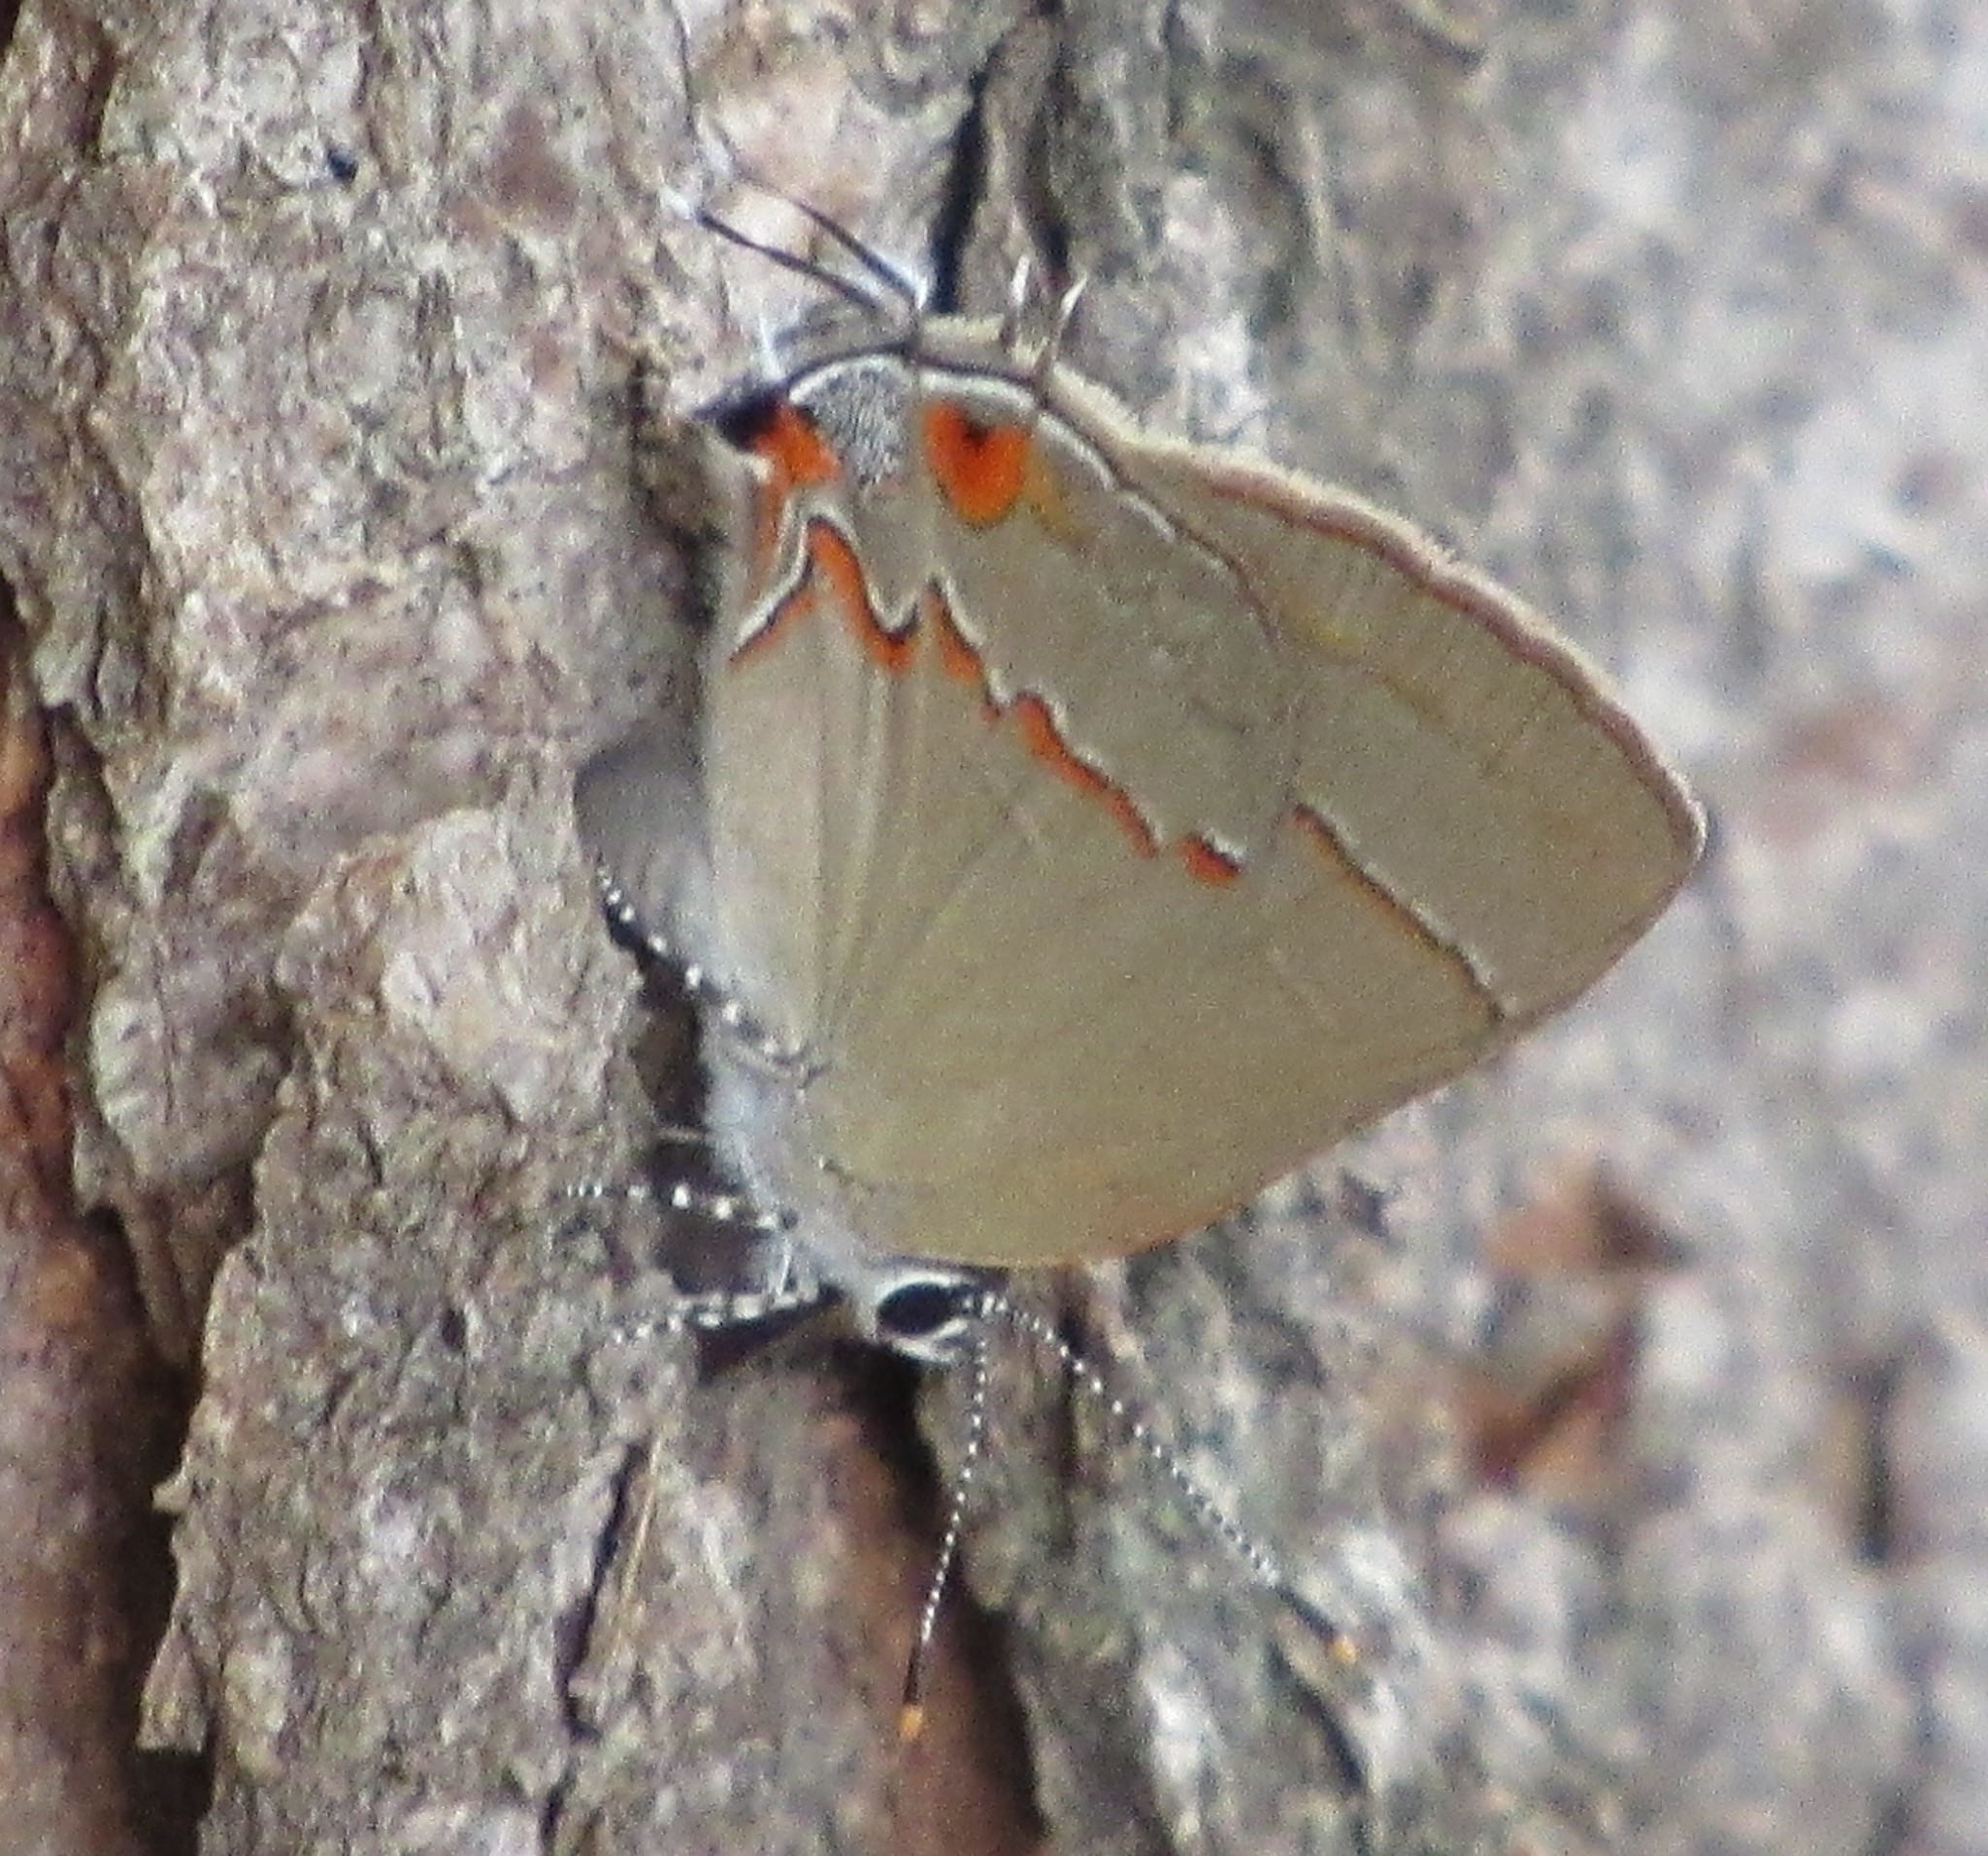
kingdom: Animalia
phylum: Arthropoda
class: Insecta
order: Lepidoptera
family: Lycaenidae
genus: Arzecla
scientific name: Arzecla tucumanensis
